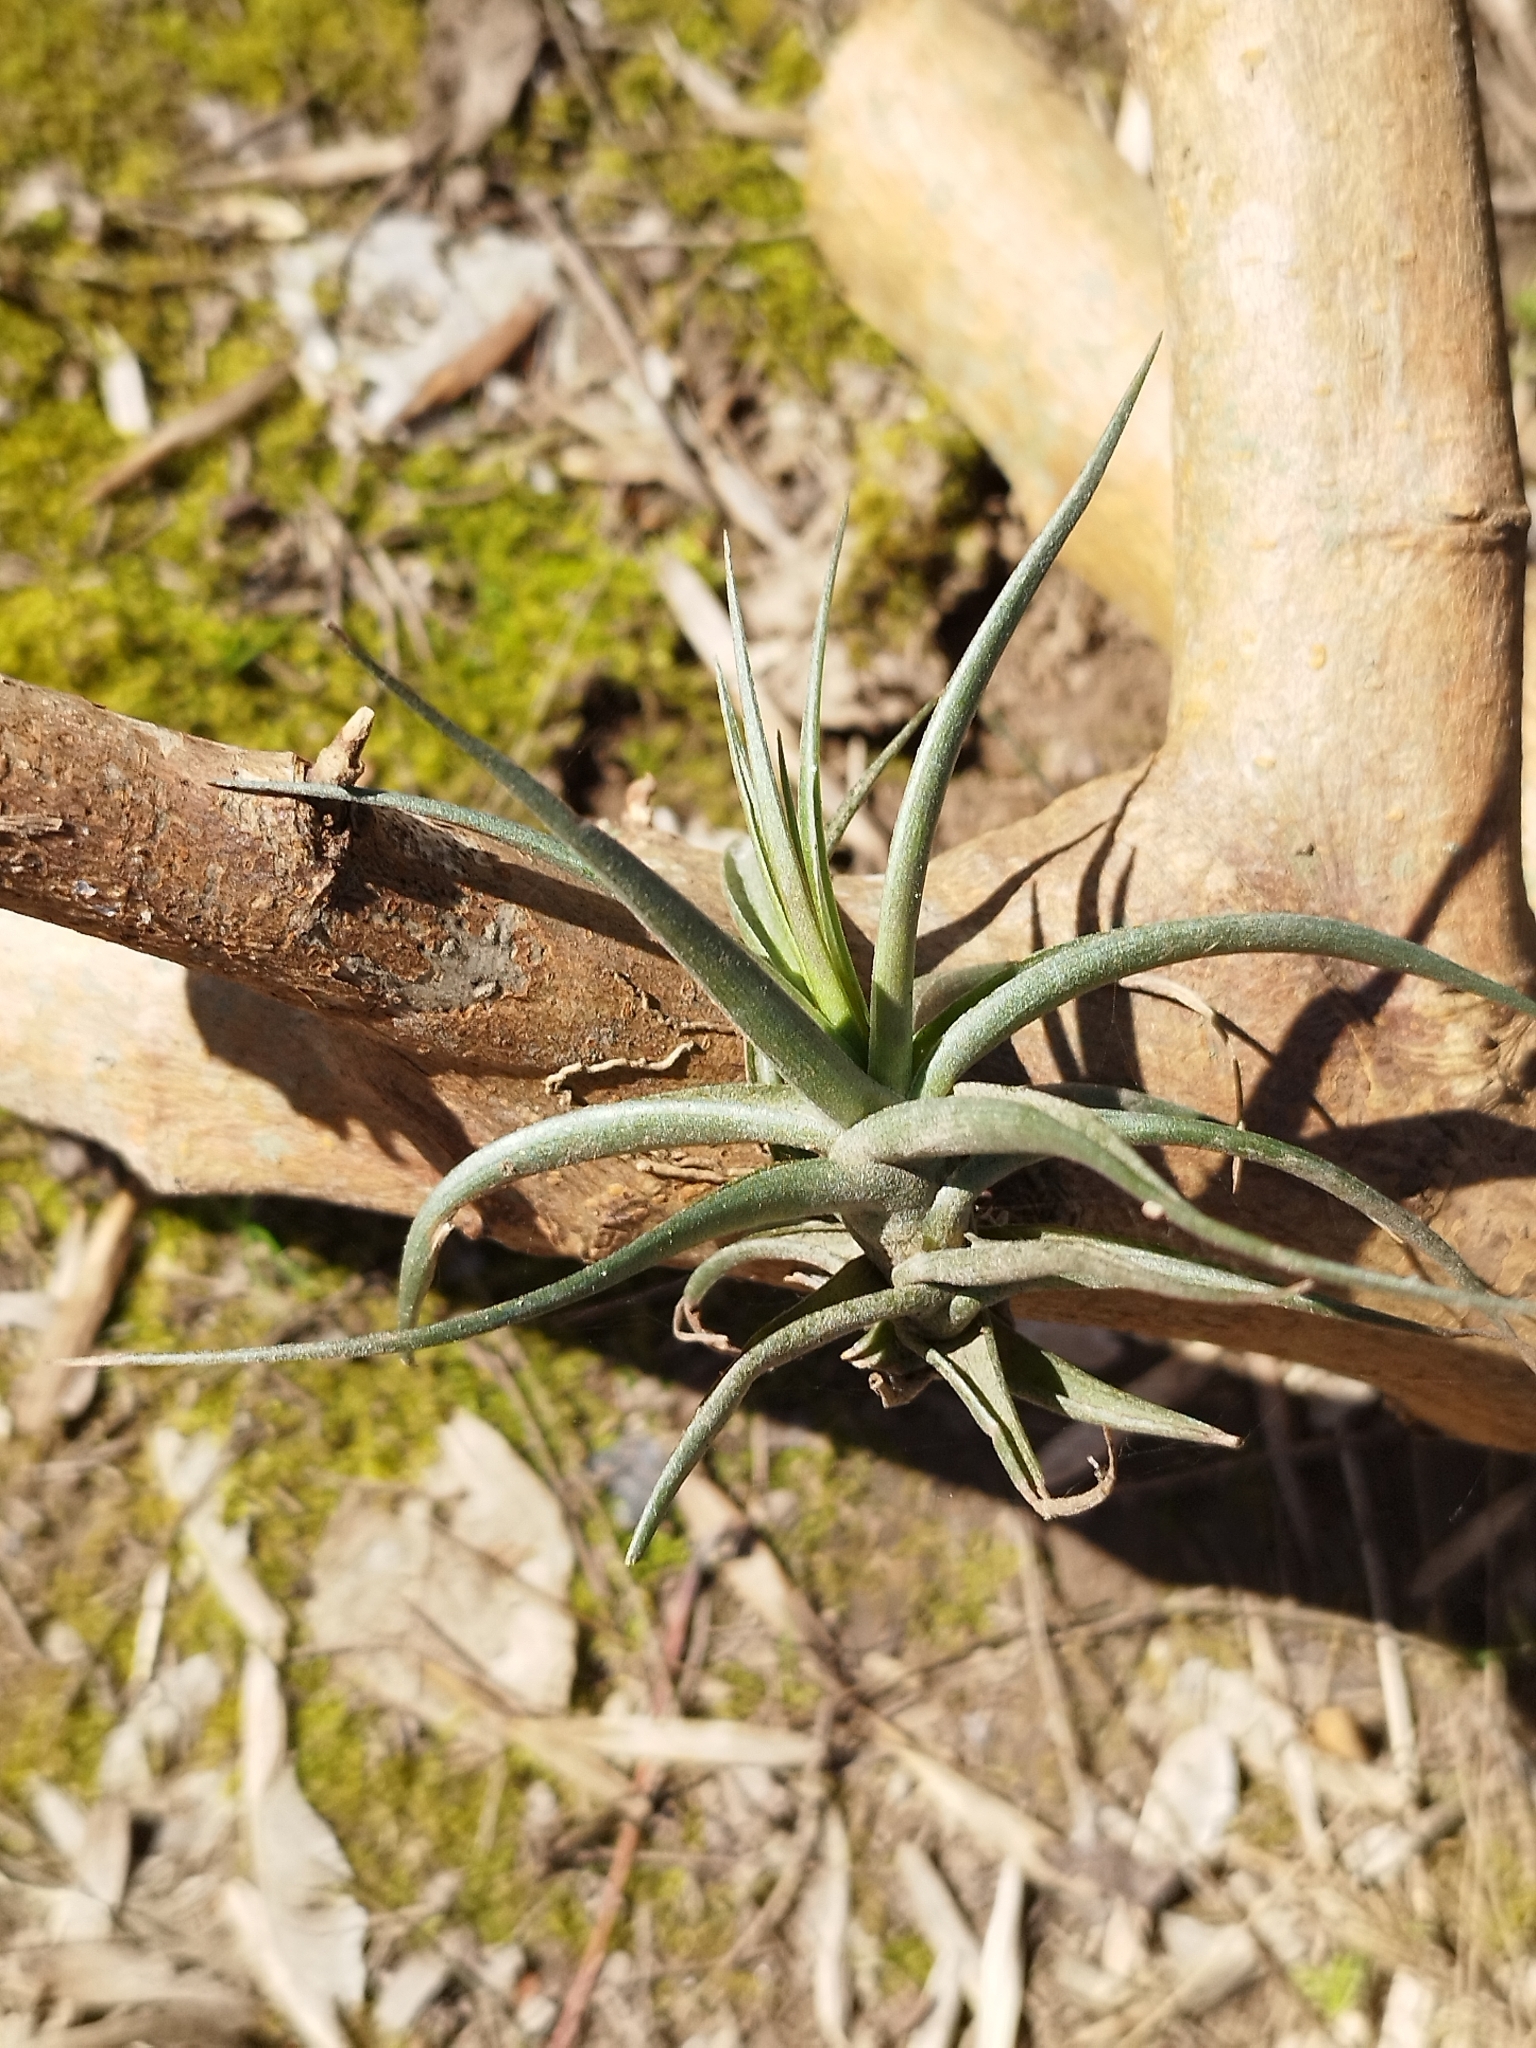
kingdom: Plantae
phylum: Tracheophyta
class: Liliopsida
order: Poales
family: Bromeliaceae
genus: Tillandsia
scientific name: Tillandsia aeranthos
